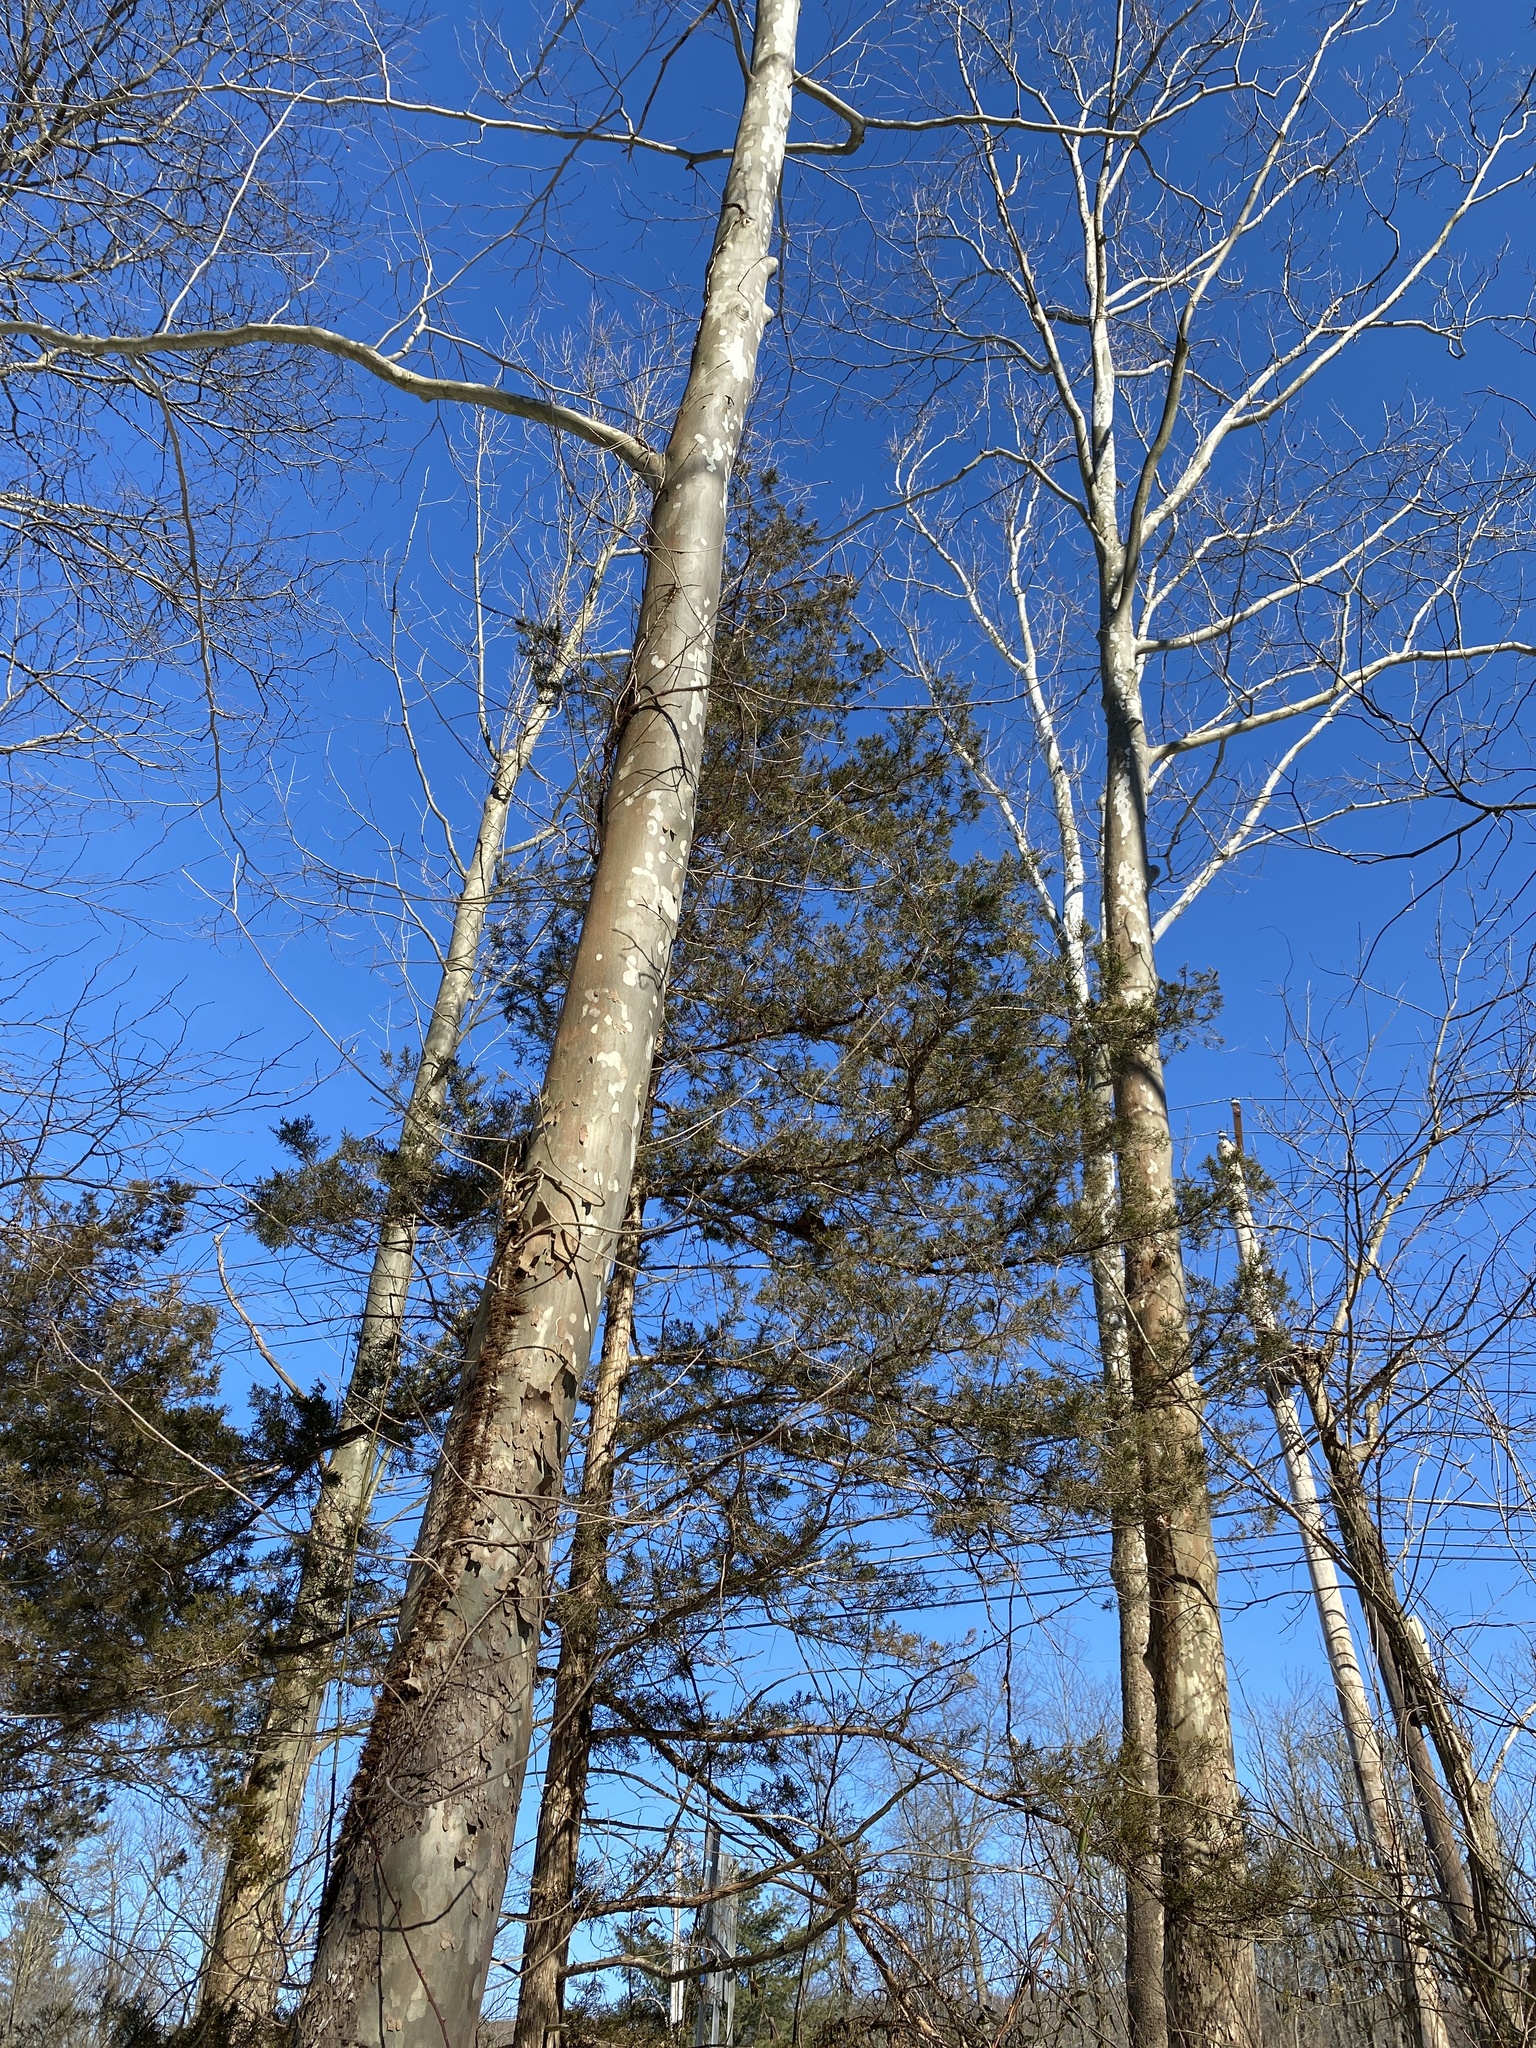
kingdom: Plantae
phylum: Tracheophyta
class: Magnoliopsida
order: Proteales
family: Platanaceae
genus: Platanus
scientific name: Platanus occidentalis
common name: American sycamore
